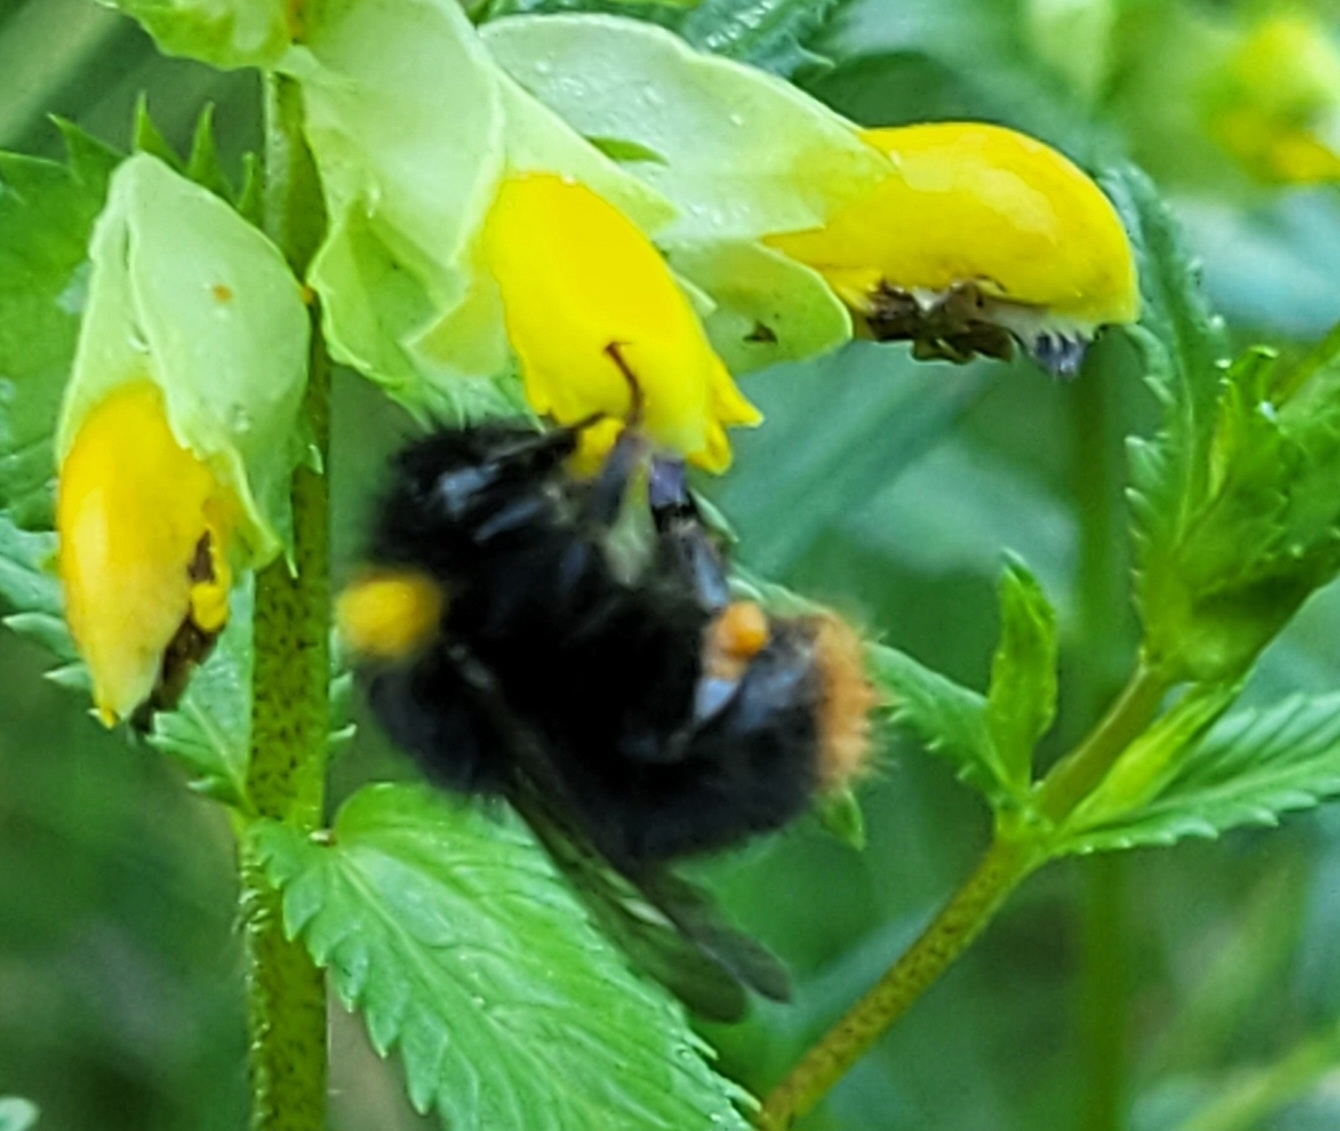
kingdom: Animalia
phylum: Arthropoda
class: Insecta
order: Hymenoptera
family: Apidae
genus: Bombus
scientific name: Bombus pratorum
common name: Early humble-bee
